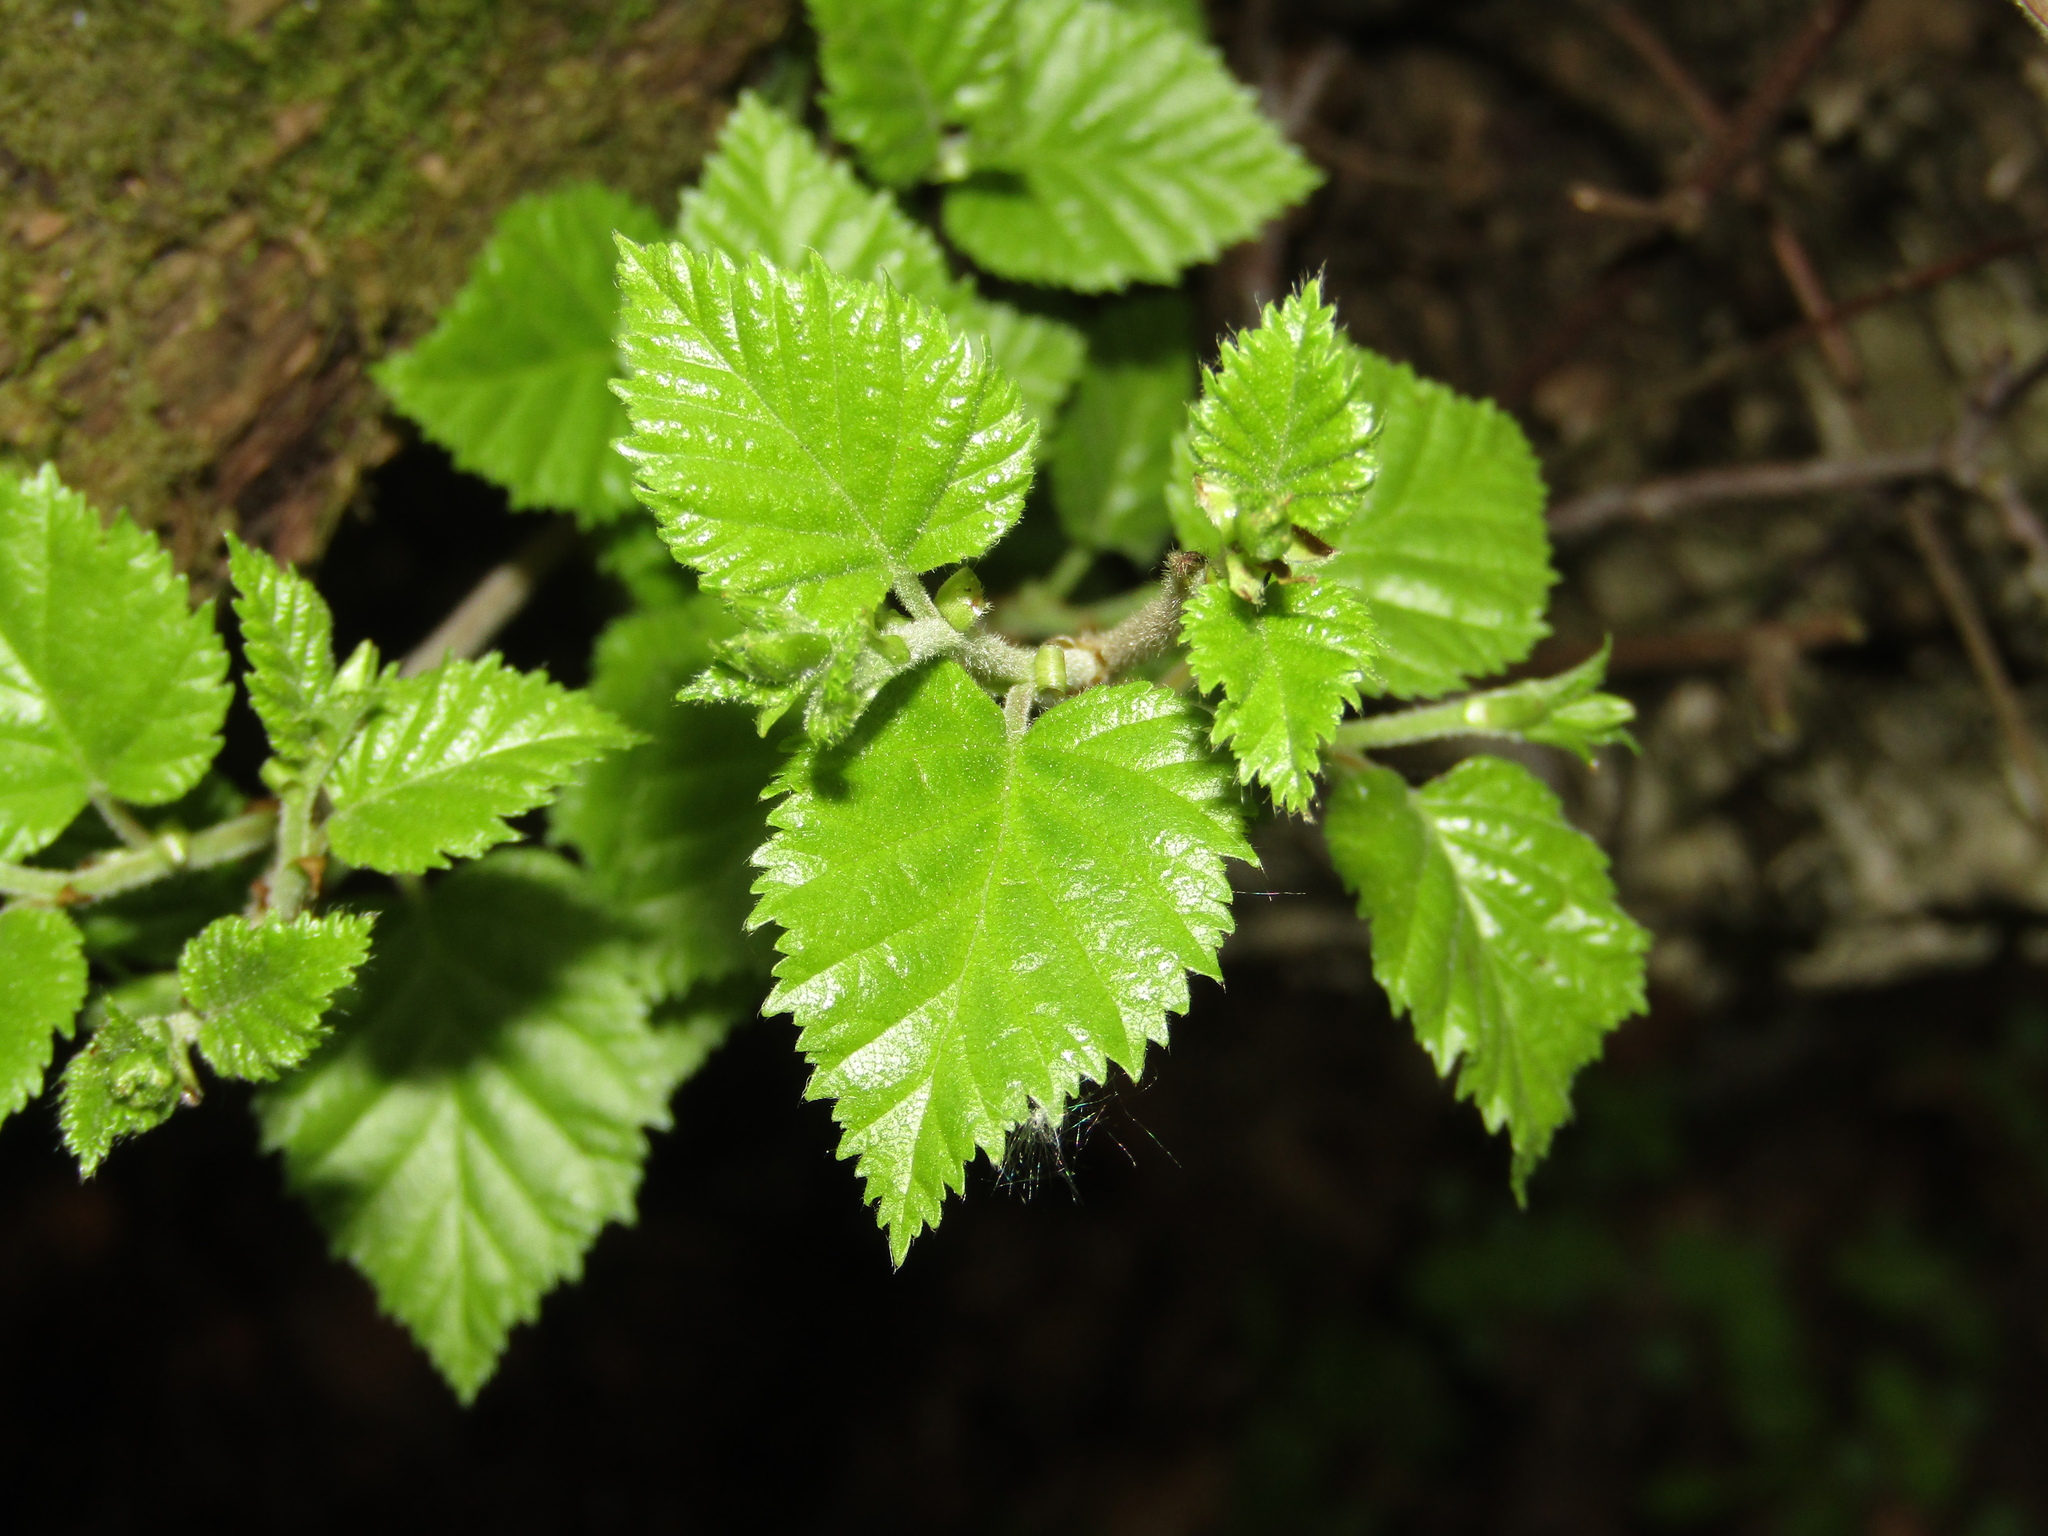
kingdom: Plantae
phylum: Tracheophyta
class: Magnoliopsida
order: Fagales
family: Betulaceae
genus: Betula
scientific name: Betula pubescens
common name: Downy birch
